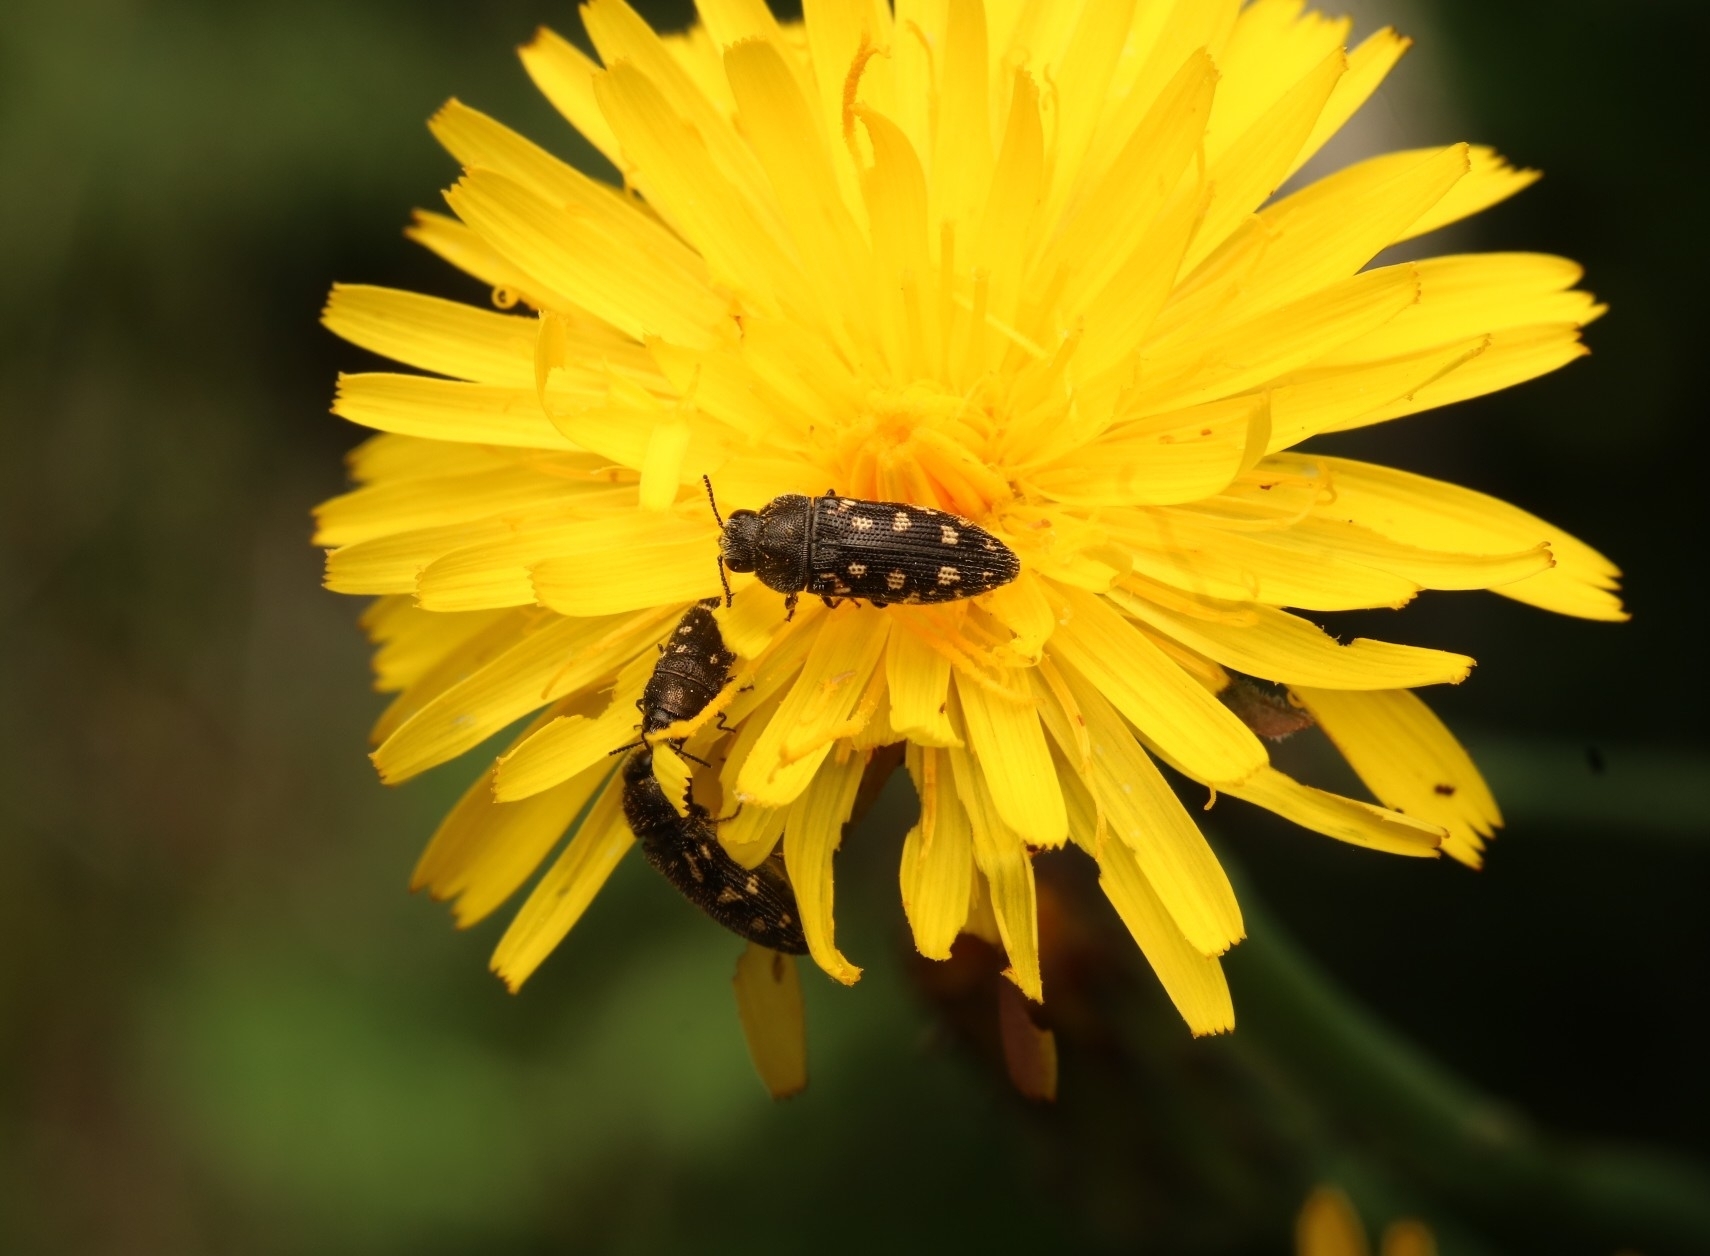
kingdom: Animalia
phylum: Arthropoda
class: Insecta
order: Coleoptera
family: Buprestidae
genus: Acmaeodera
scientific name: Acmaeodera tubulus
